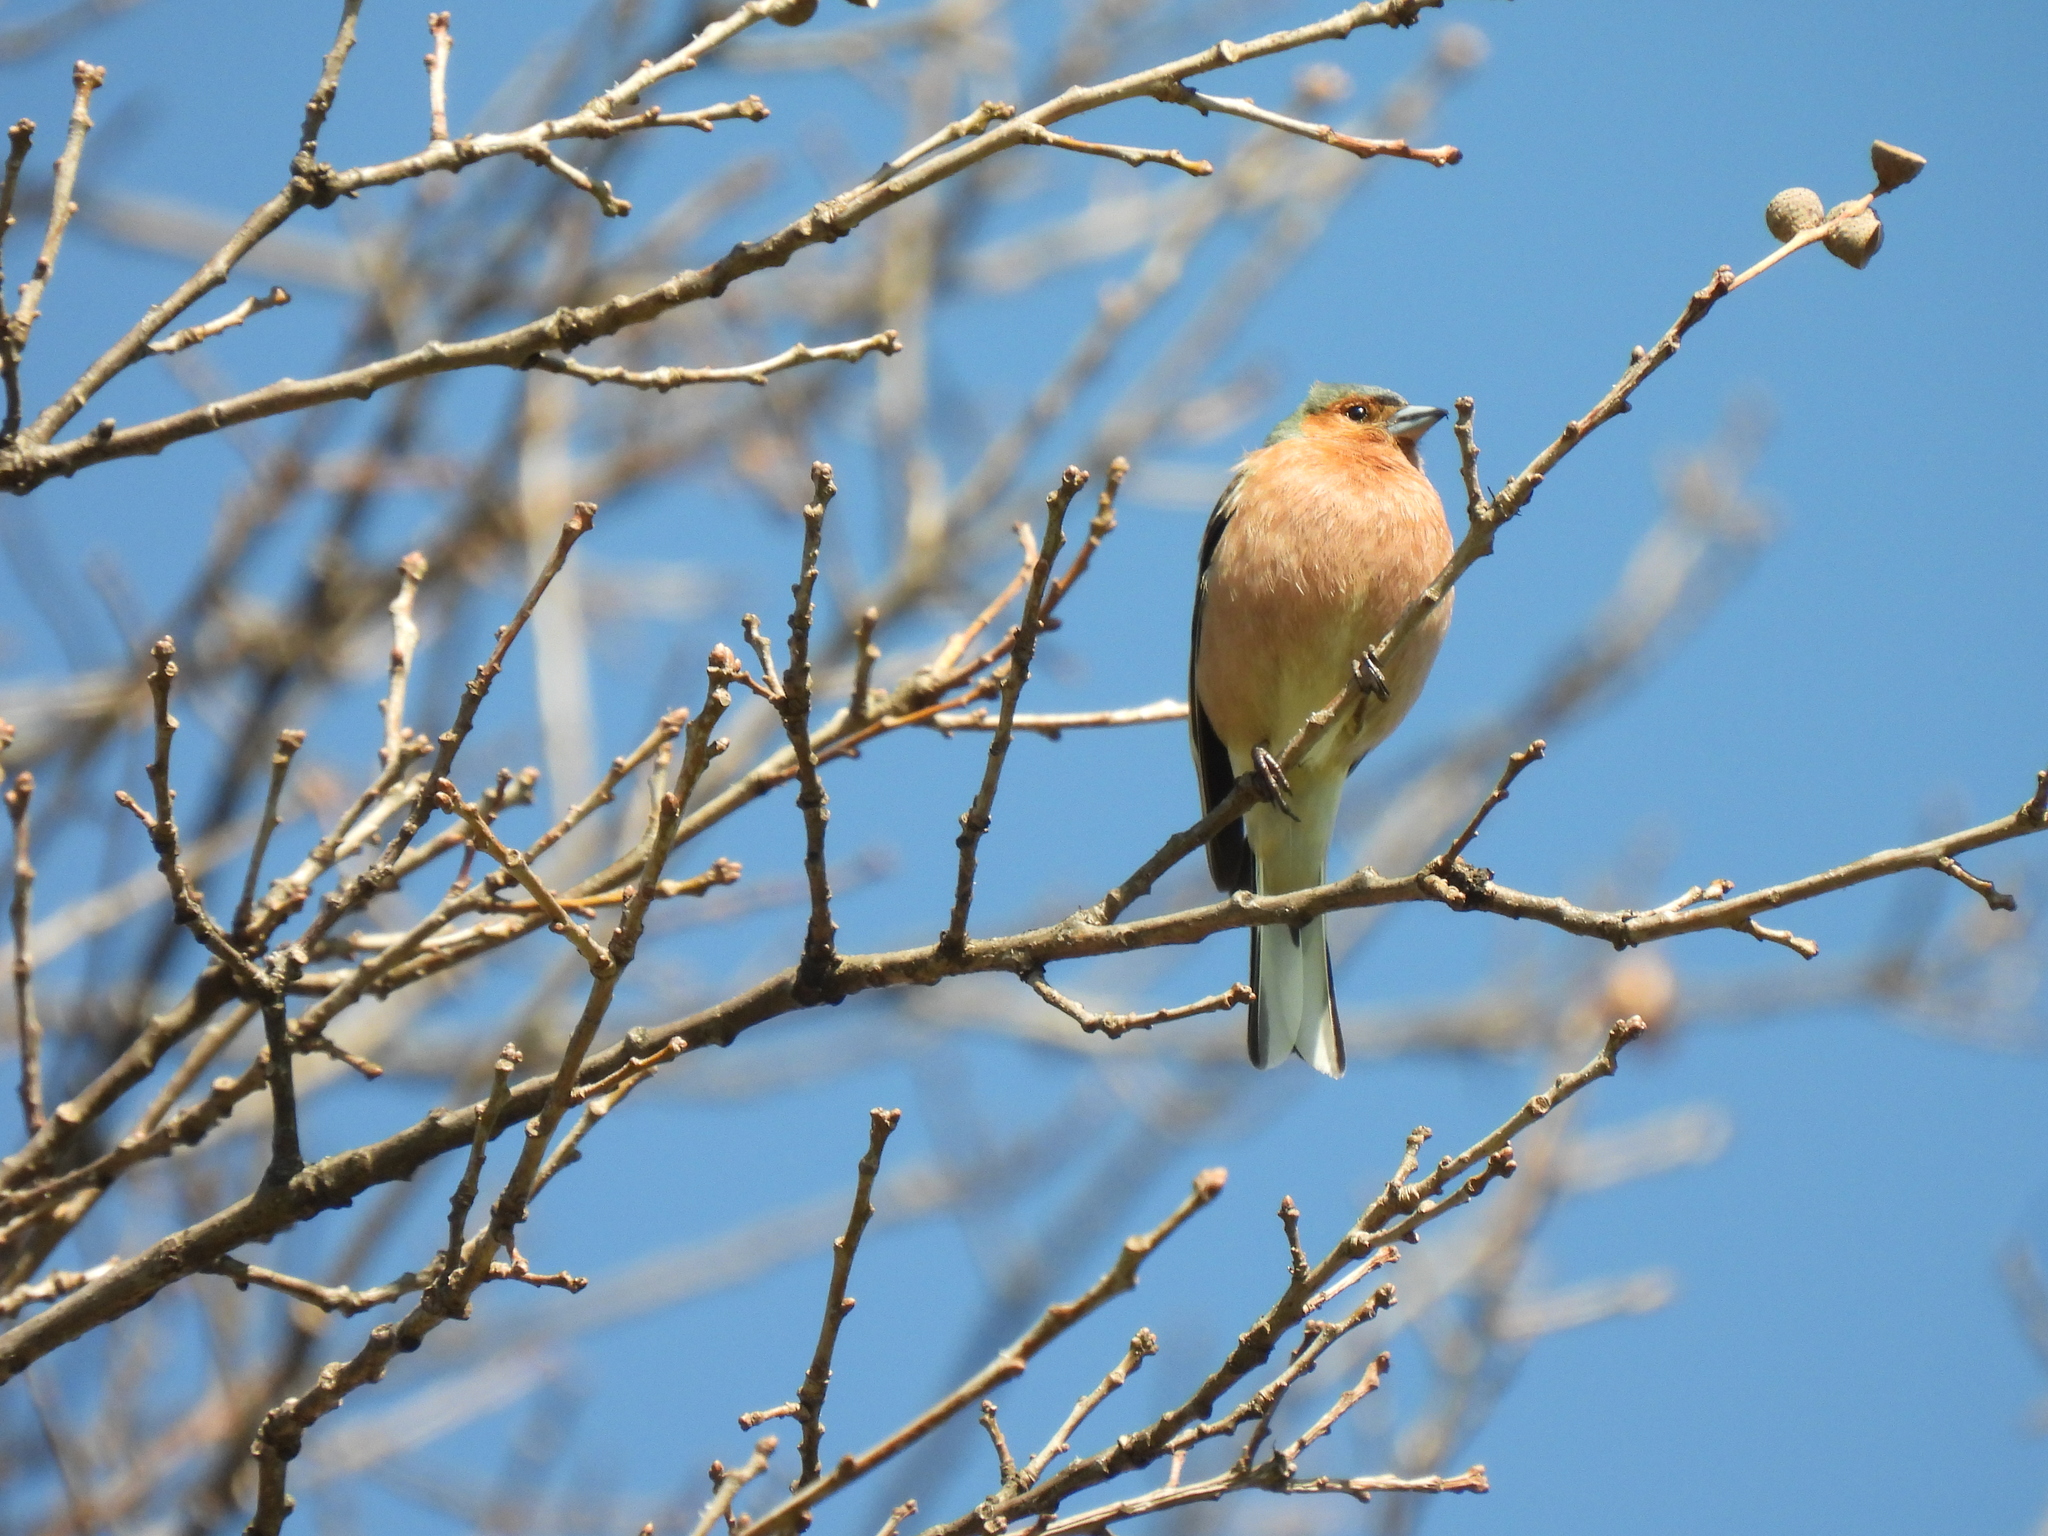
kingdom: Animalia
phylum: Chordata
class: Aves
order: Passeriformes
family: Fringillidae
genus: Fringilla
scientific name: Fringilla coelebs
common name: Common chaffinch
